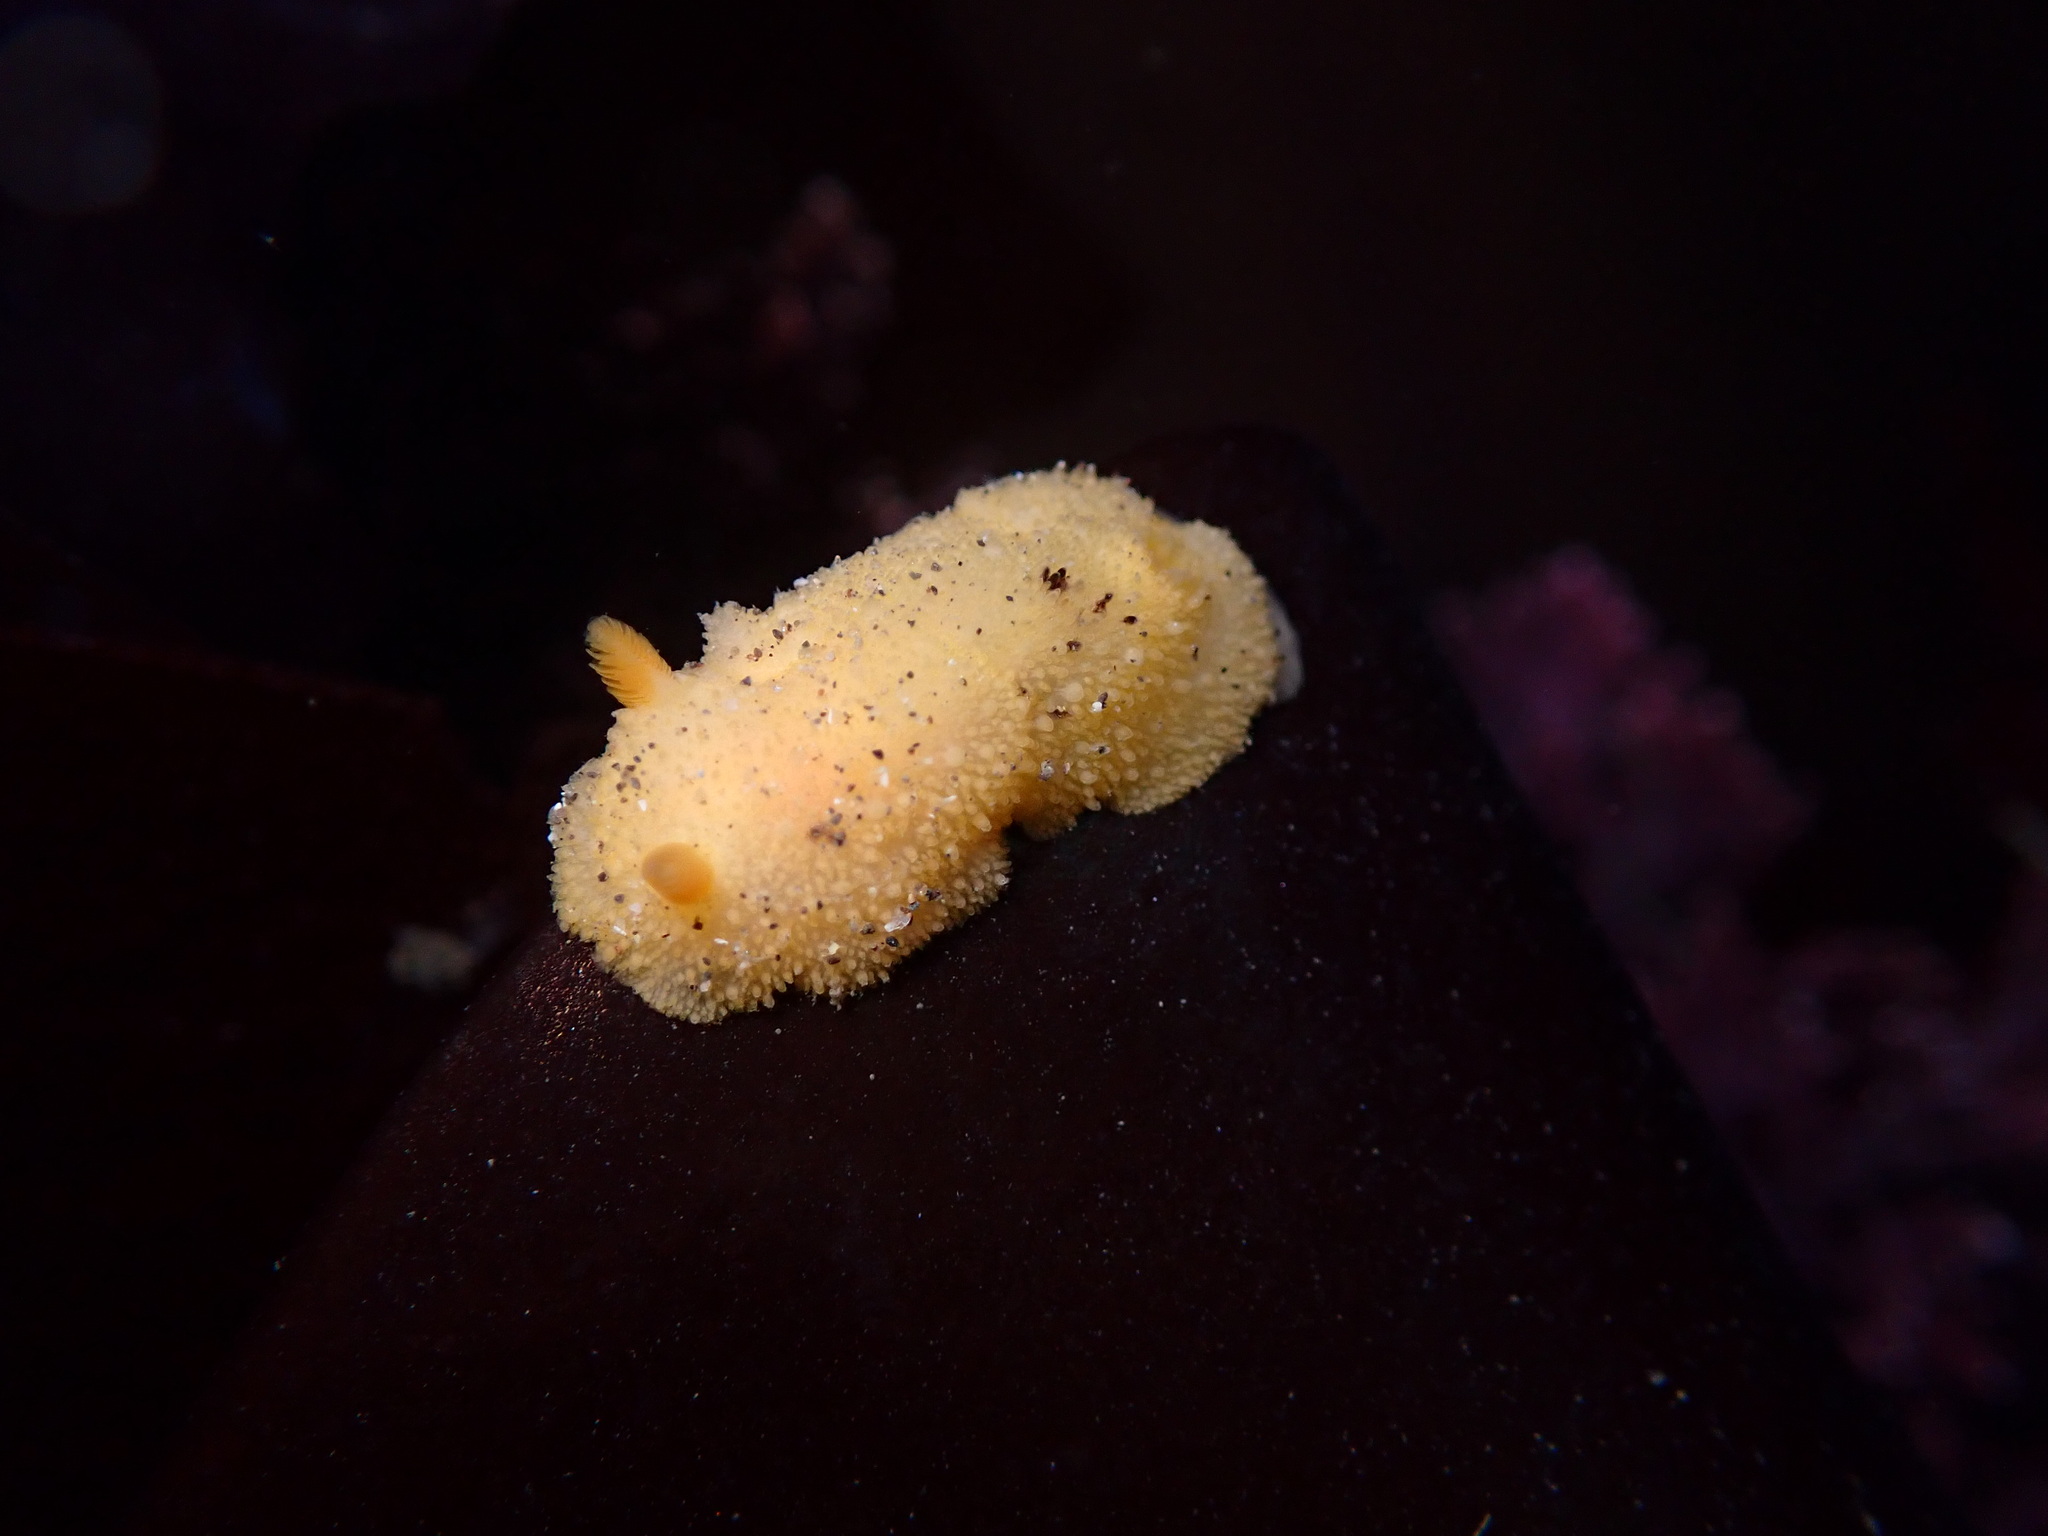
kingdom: Animalia
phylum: Mollusca
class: Gastropoda
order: Nudibranchia
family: Dorididae
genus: Doris
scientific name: Doris montereyensis
